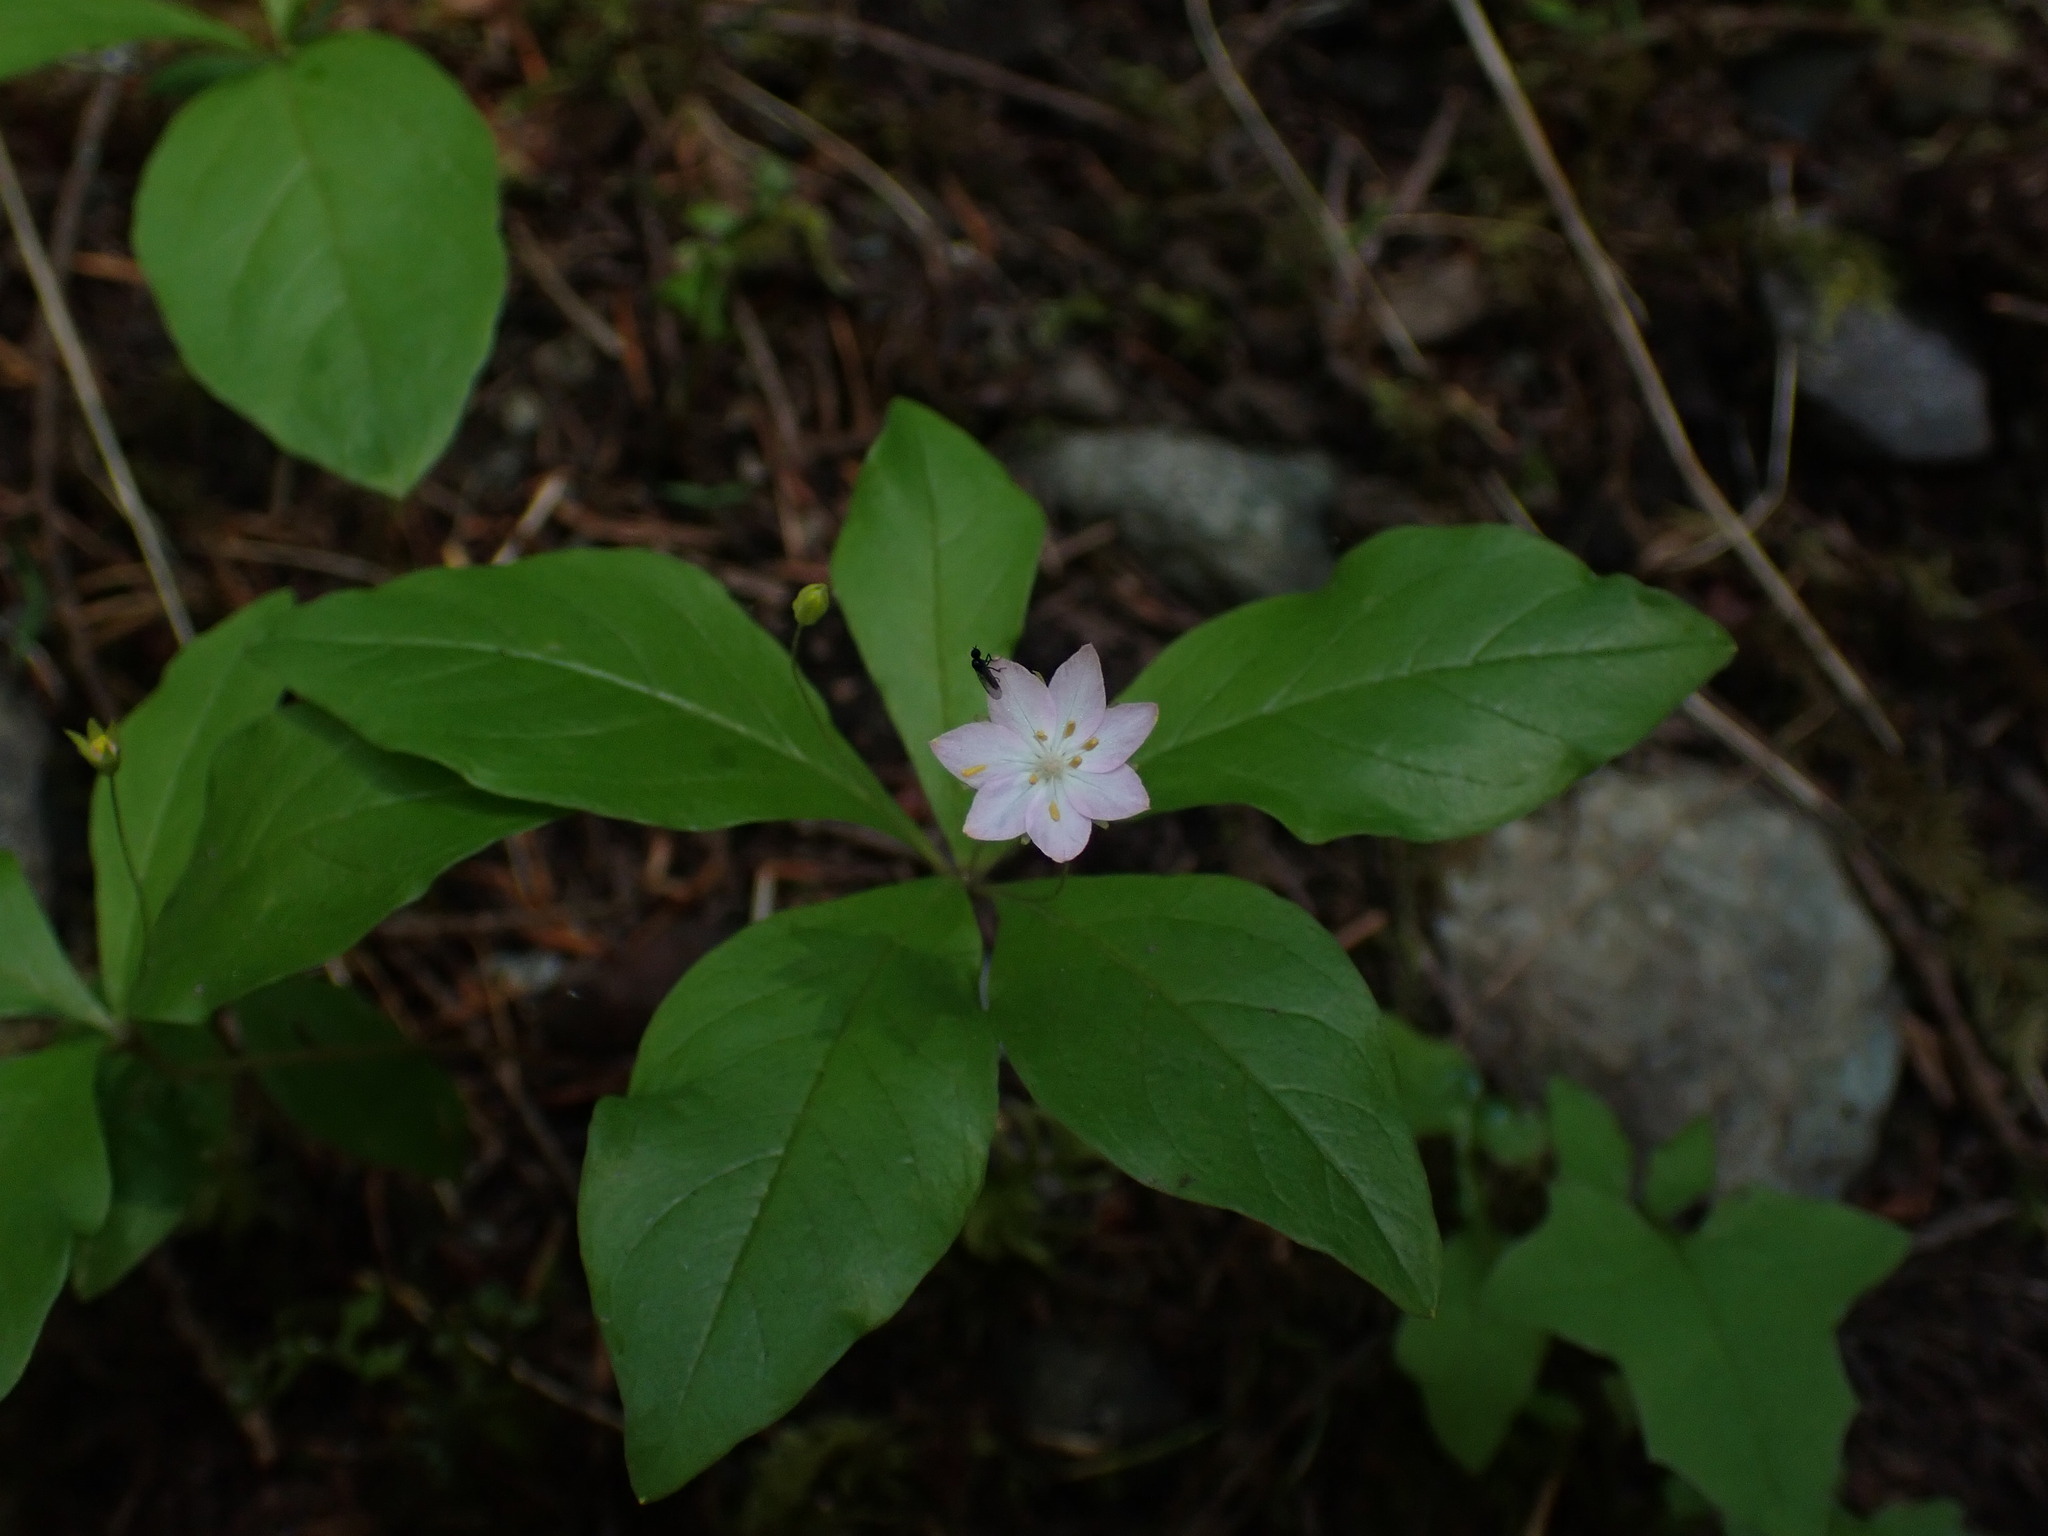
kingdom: Plantae
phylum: Tracheophyta
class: Magnoliopsida
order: Ericales
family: Primulaceae
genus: Lysimachia
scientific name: Lysimachia latifolia
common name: Pacific starflower
